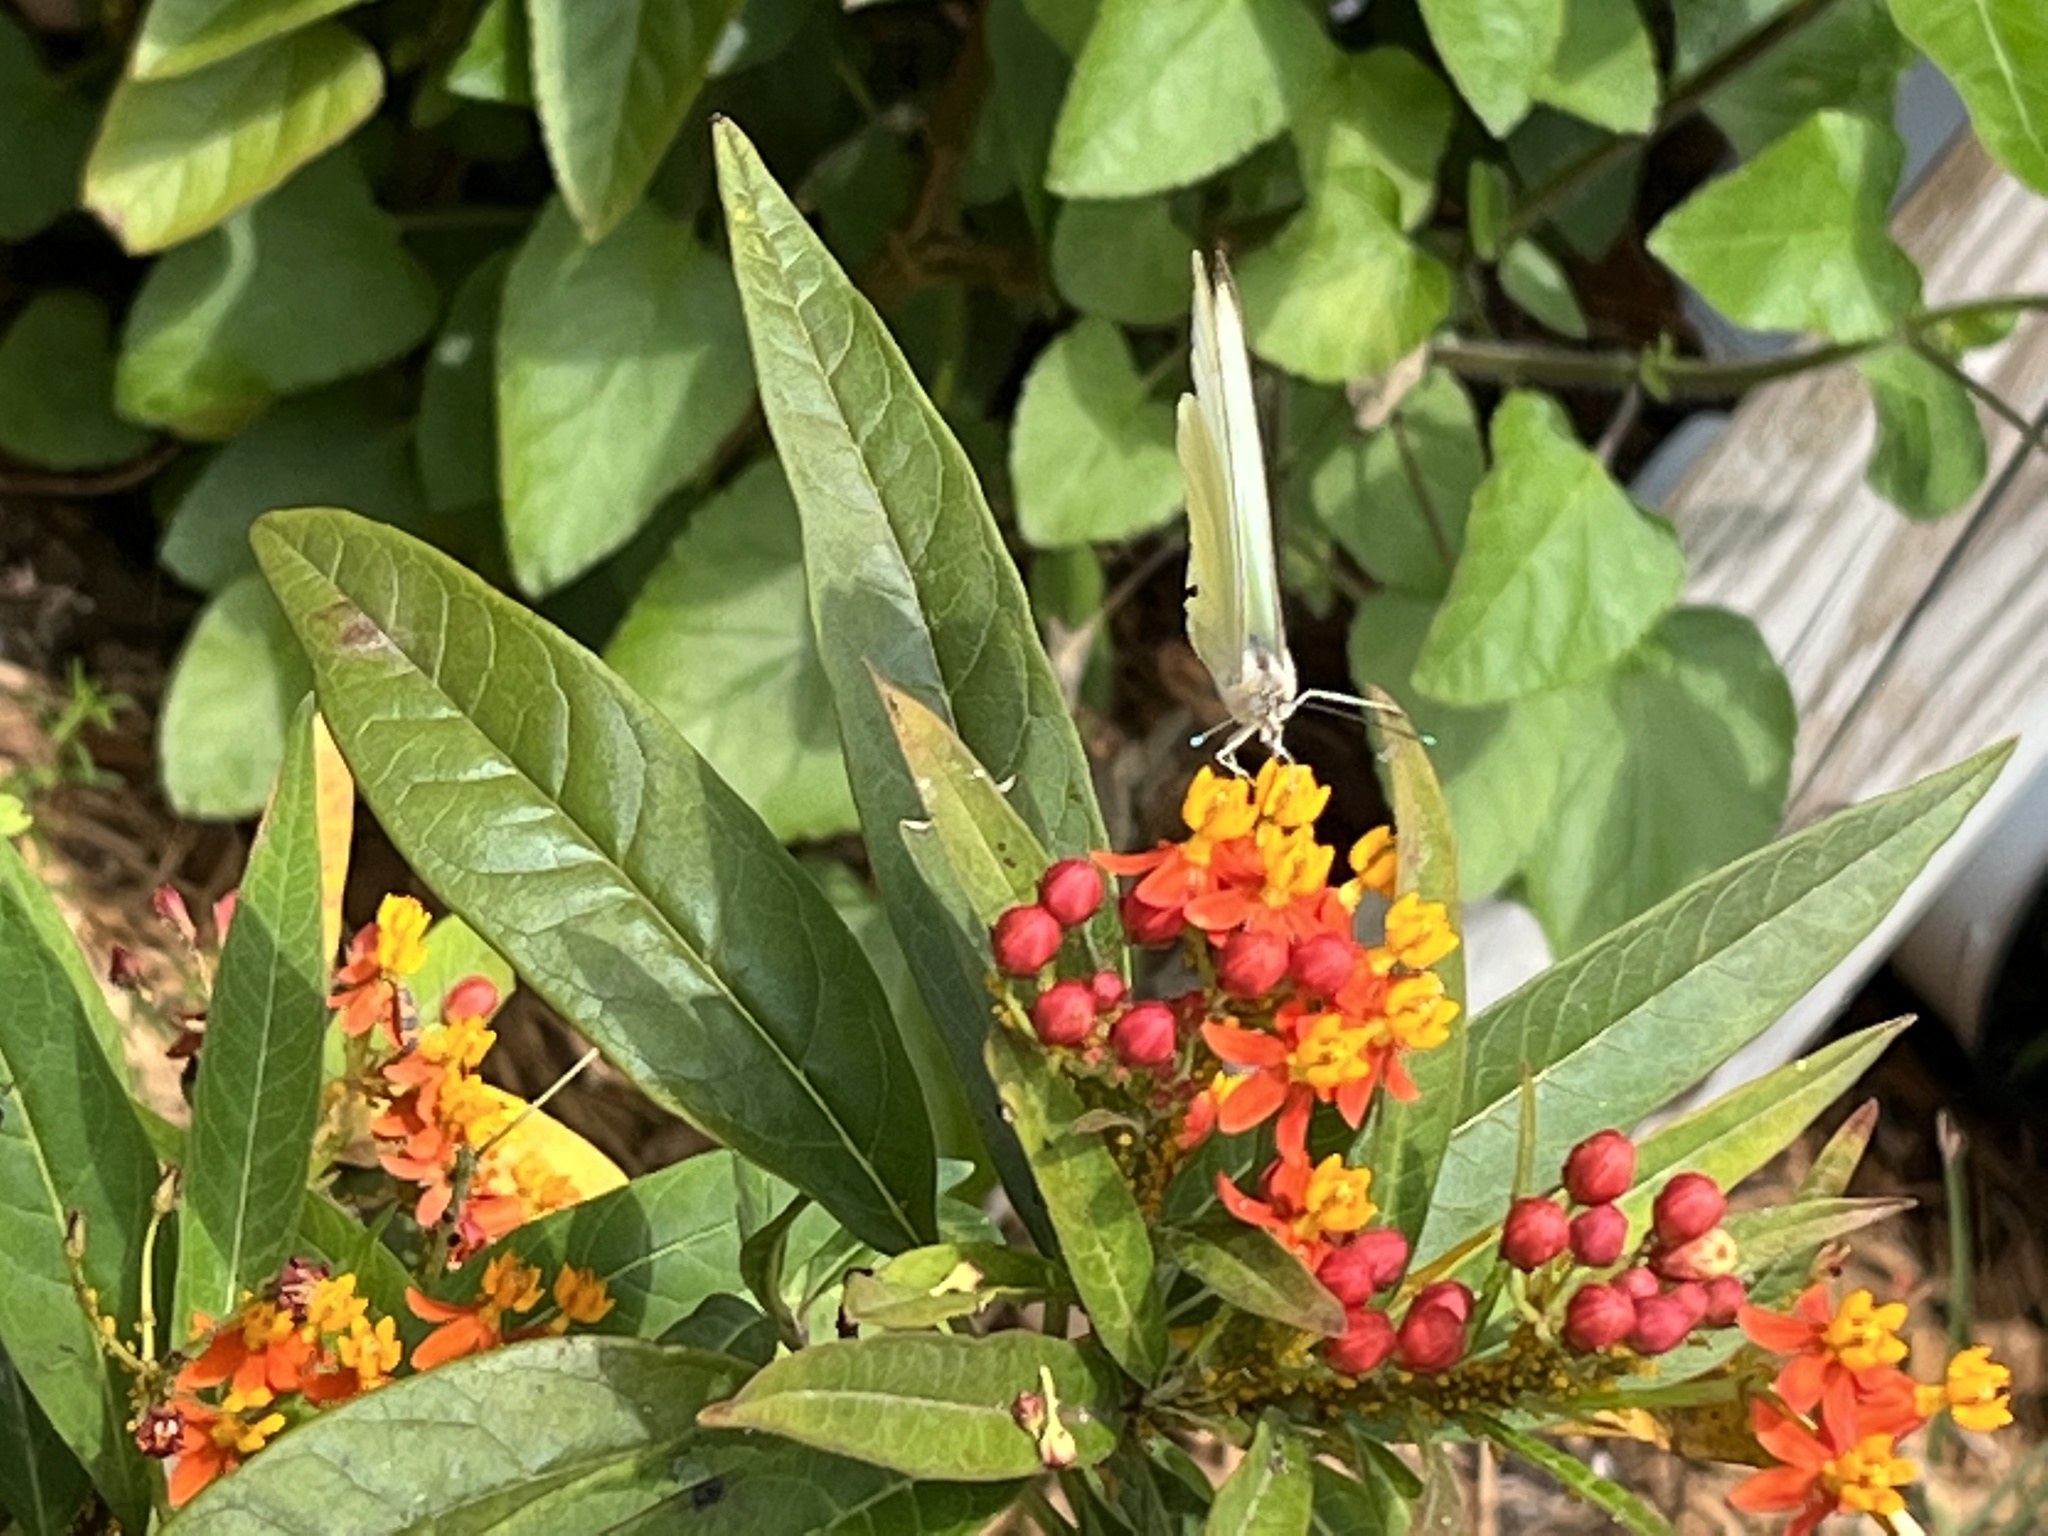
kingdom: Animalia
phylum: Arthropoda
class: Insecta
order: Lepidoptera
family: Pieridae
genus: Ascia
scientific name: Ascia monuste
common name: Great southern white
